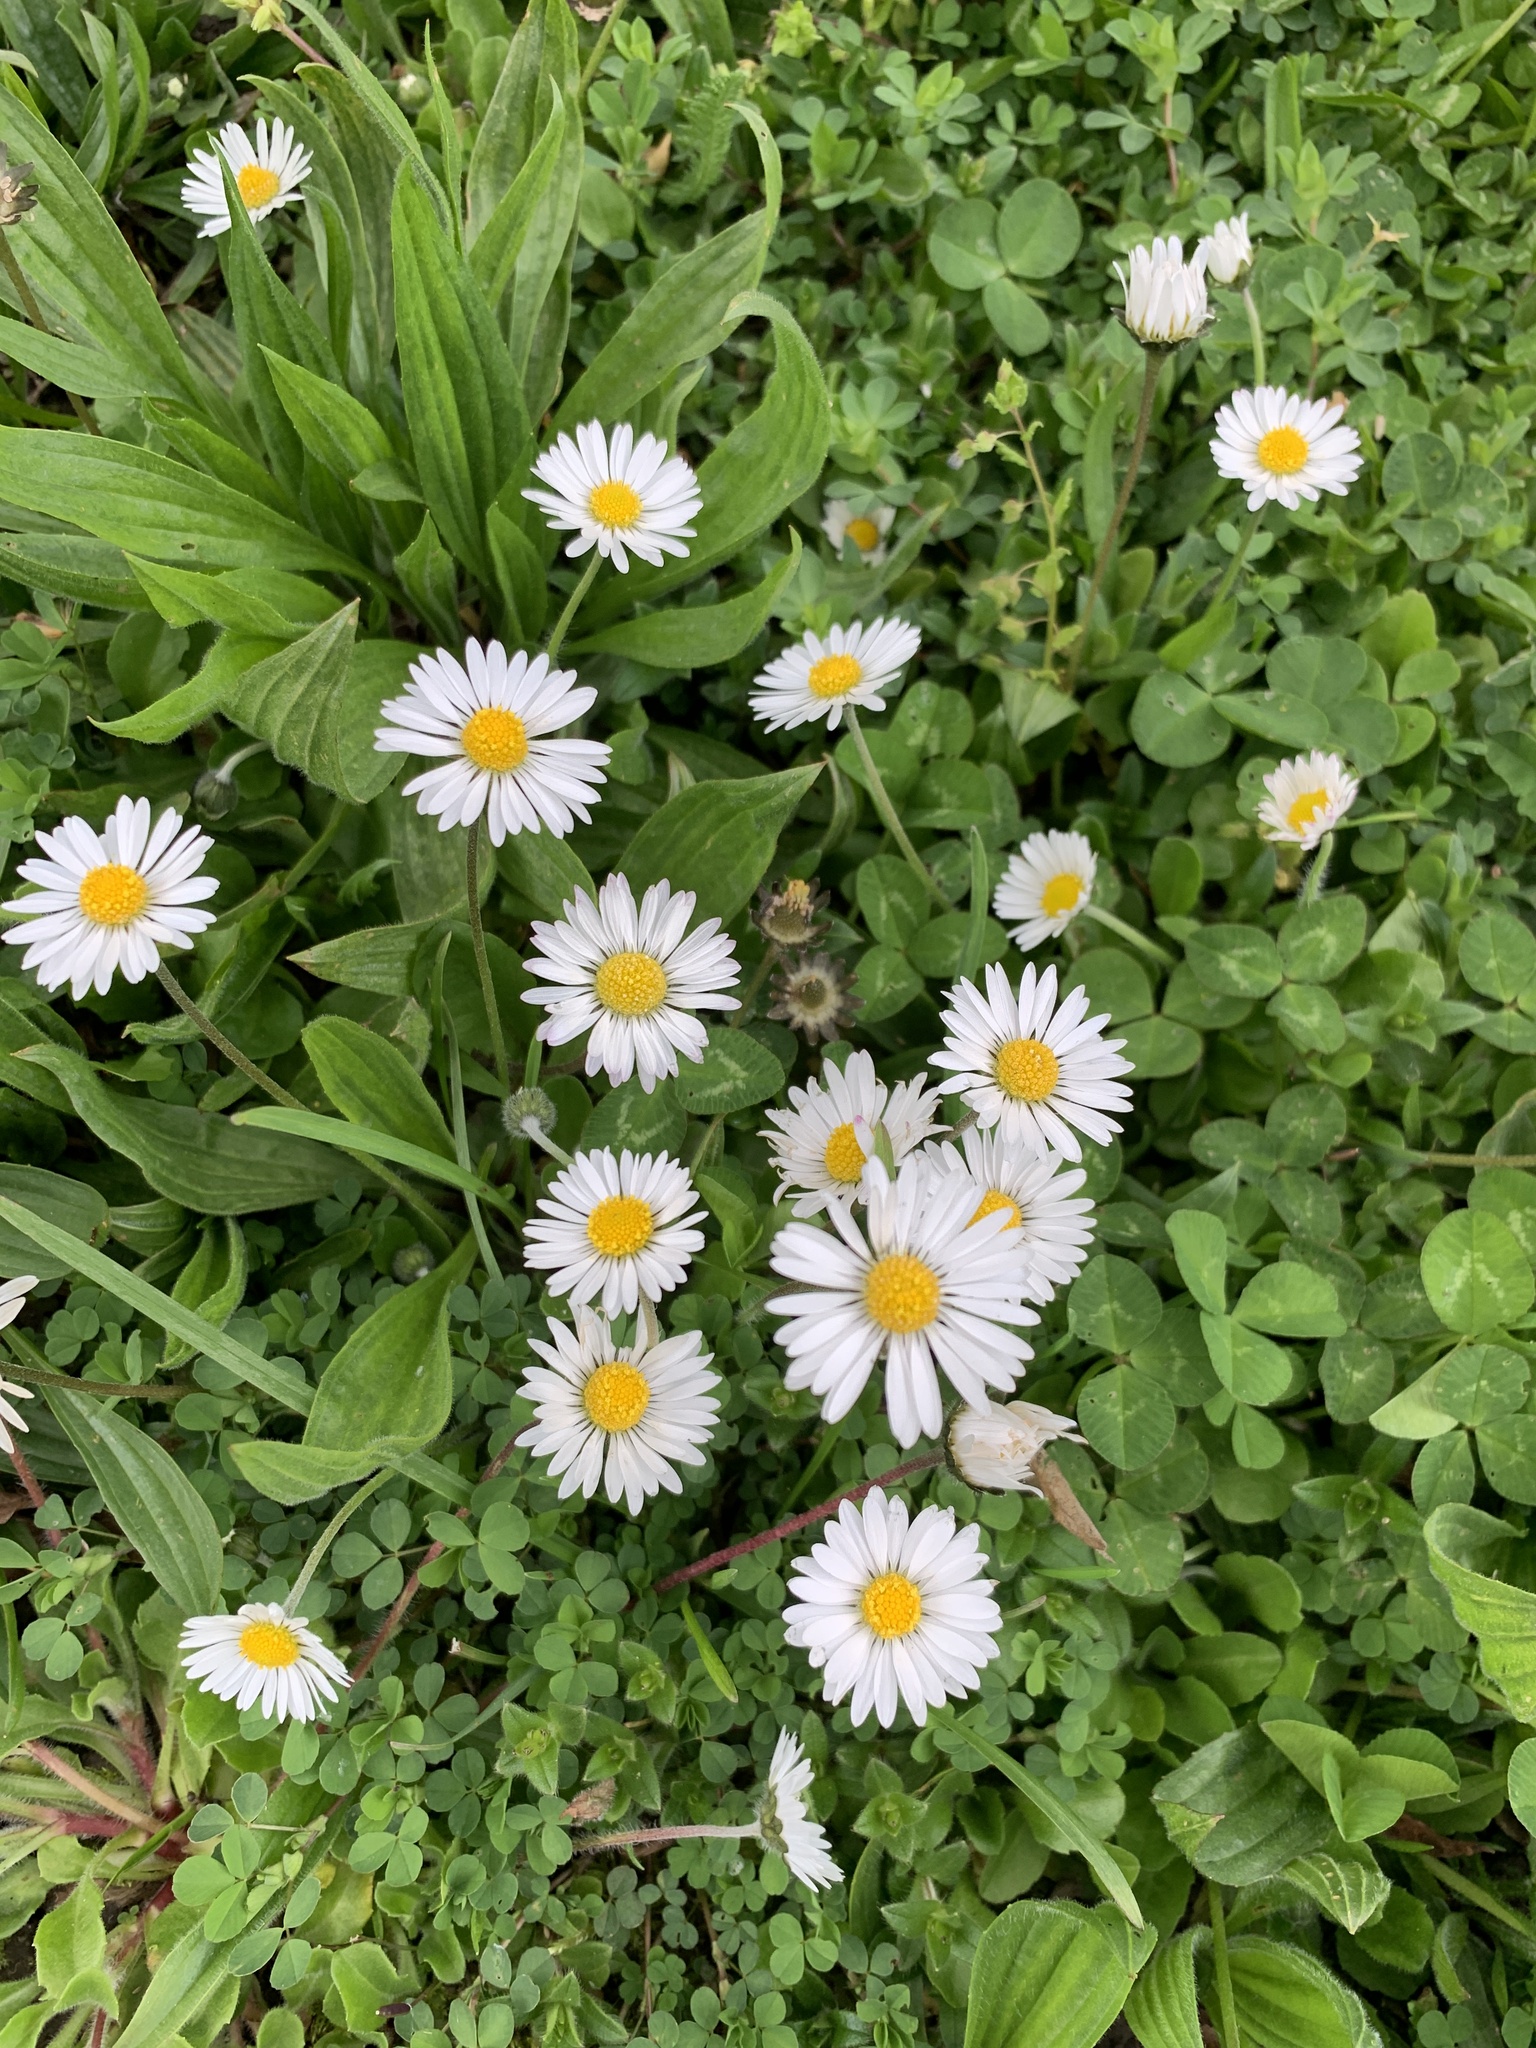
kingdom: Plantae
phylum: Tracheophyta
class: Magnoliopsida
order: Asterales
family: Asteraceae
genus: Bellis
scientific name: Bellis perennis
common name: Lawndaisy
